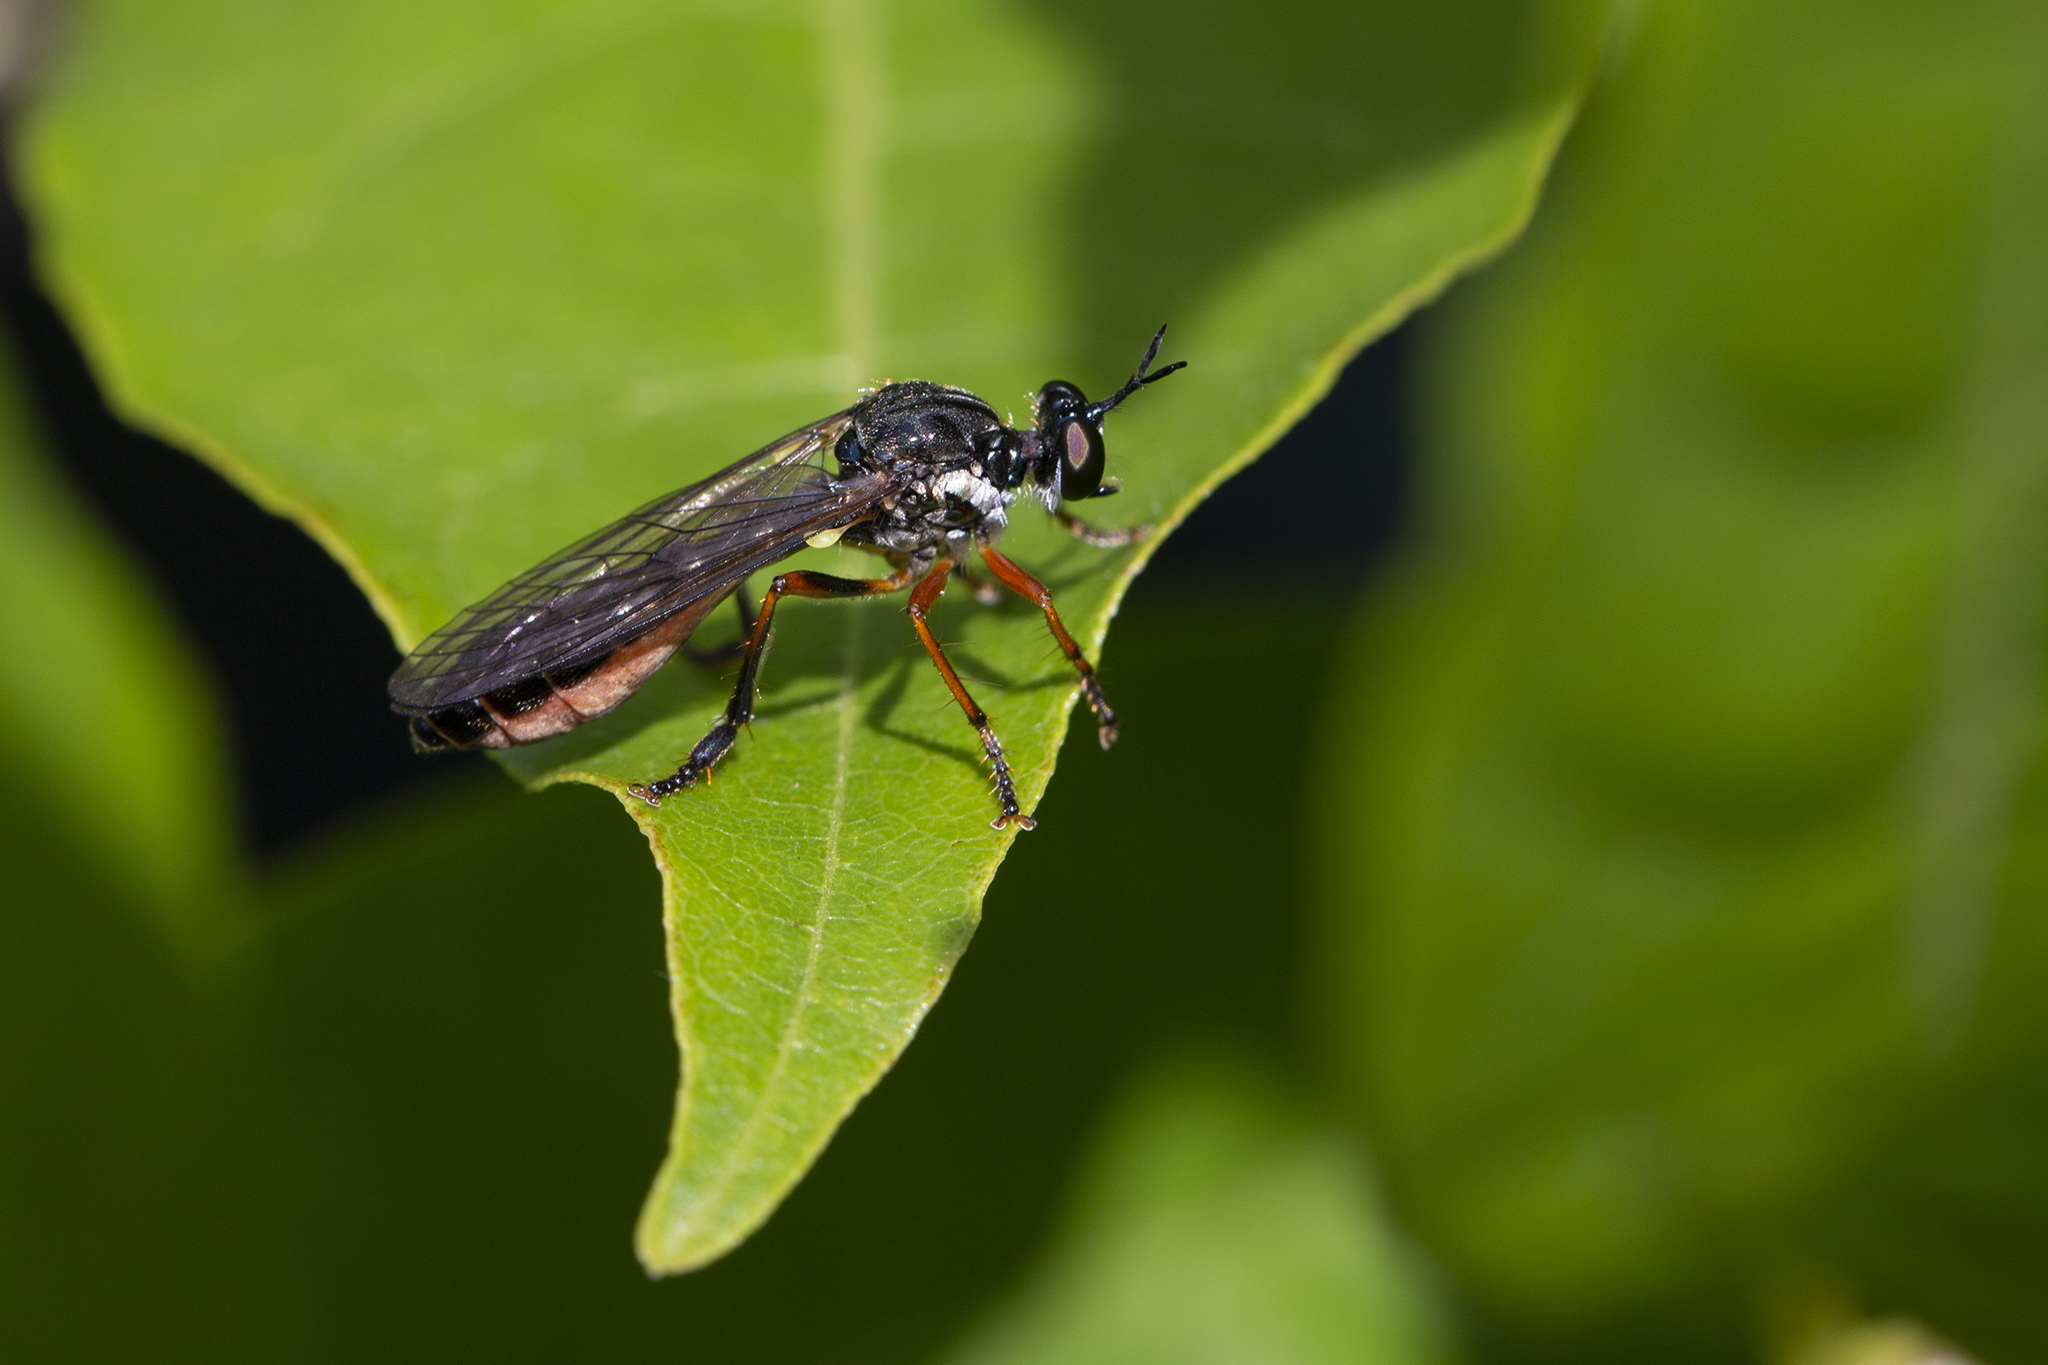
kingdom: Animalia
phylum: Arthropoda
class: Insecta
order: Diptera
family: Asilidae
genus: Dioctria
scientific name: Dioctria hyalipennis
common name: Stripe-legged robberfly
